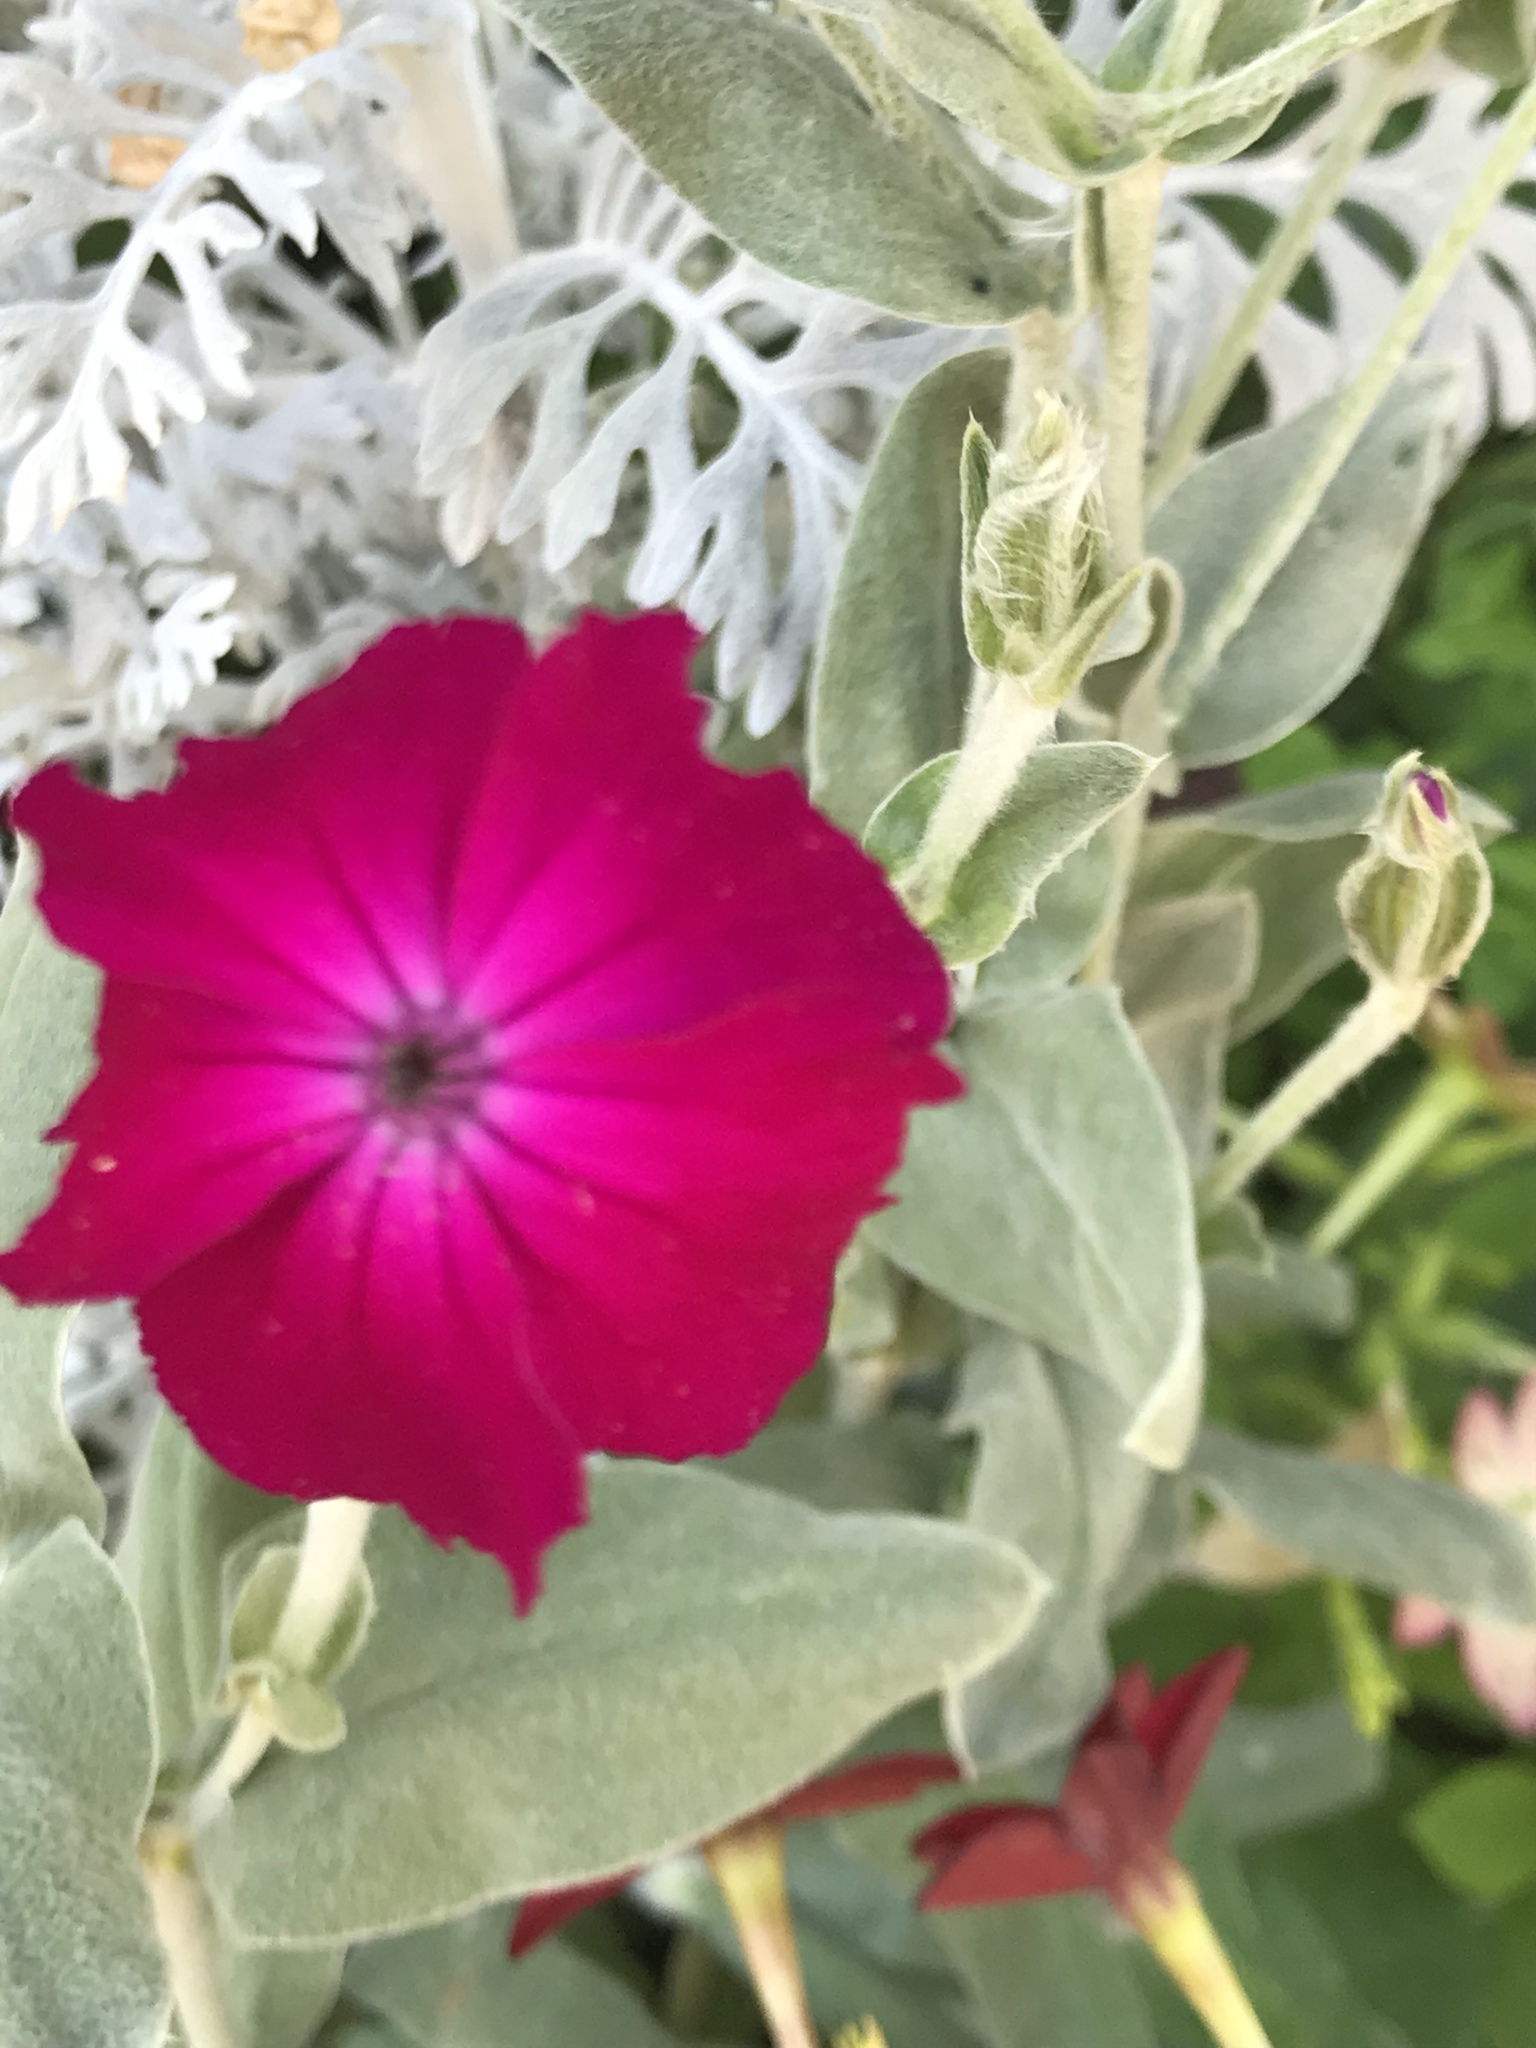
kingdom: Plantae
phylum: Tracheophyta
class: Magnoliopsida
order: Caryophyllales
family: Caryophyllaceae
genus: Silene
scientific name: Silene coronaria
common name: Rose campion
